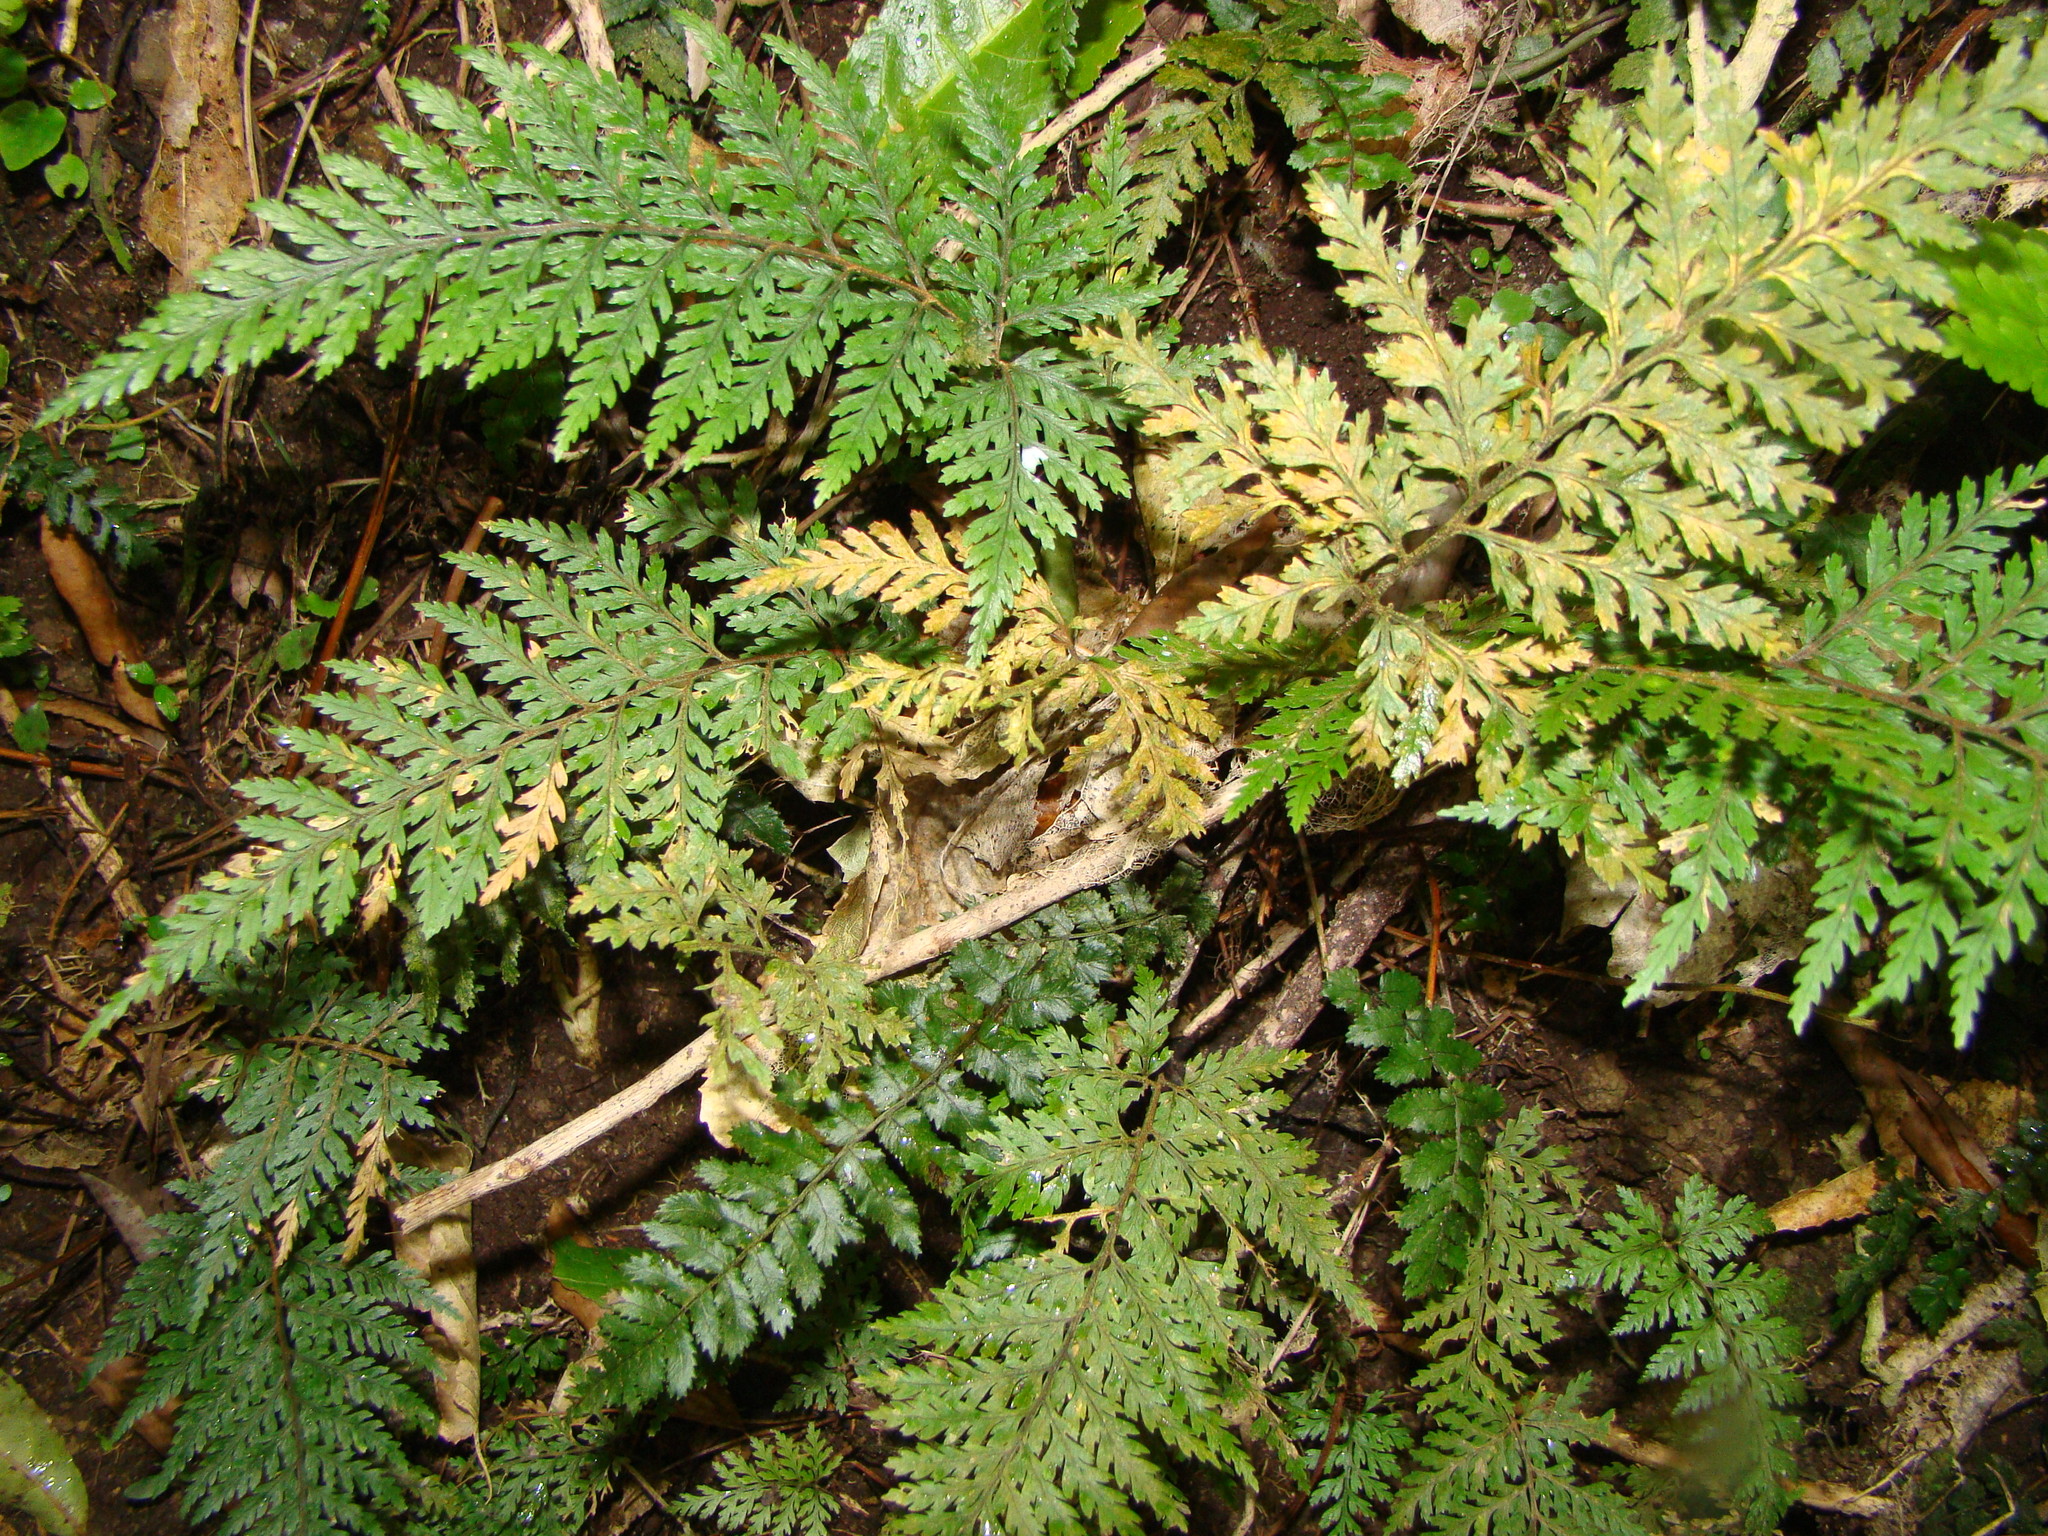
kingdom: Plantae
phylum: Tracheophyta
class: Polypodiopsida
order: Polypodiales
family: Dryopteridaceae
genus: Parapolystichum
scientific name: Parapolystichum glabellum
